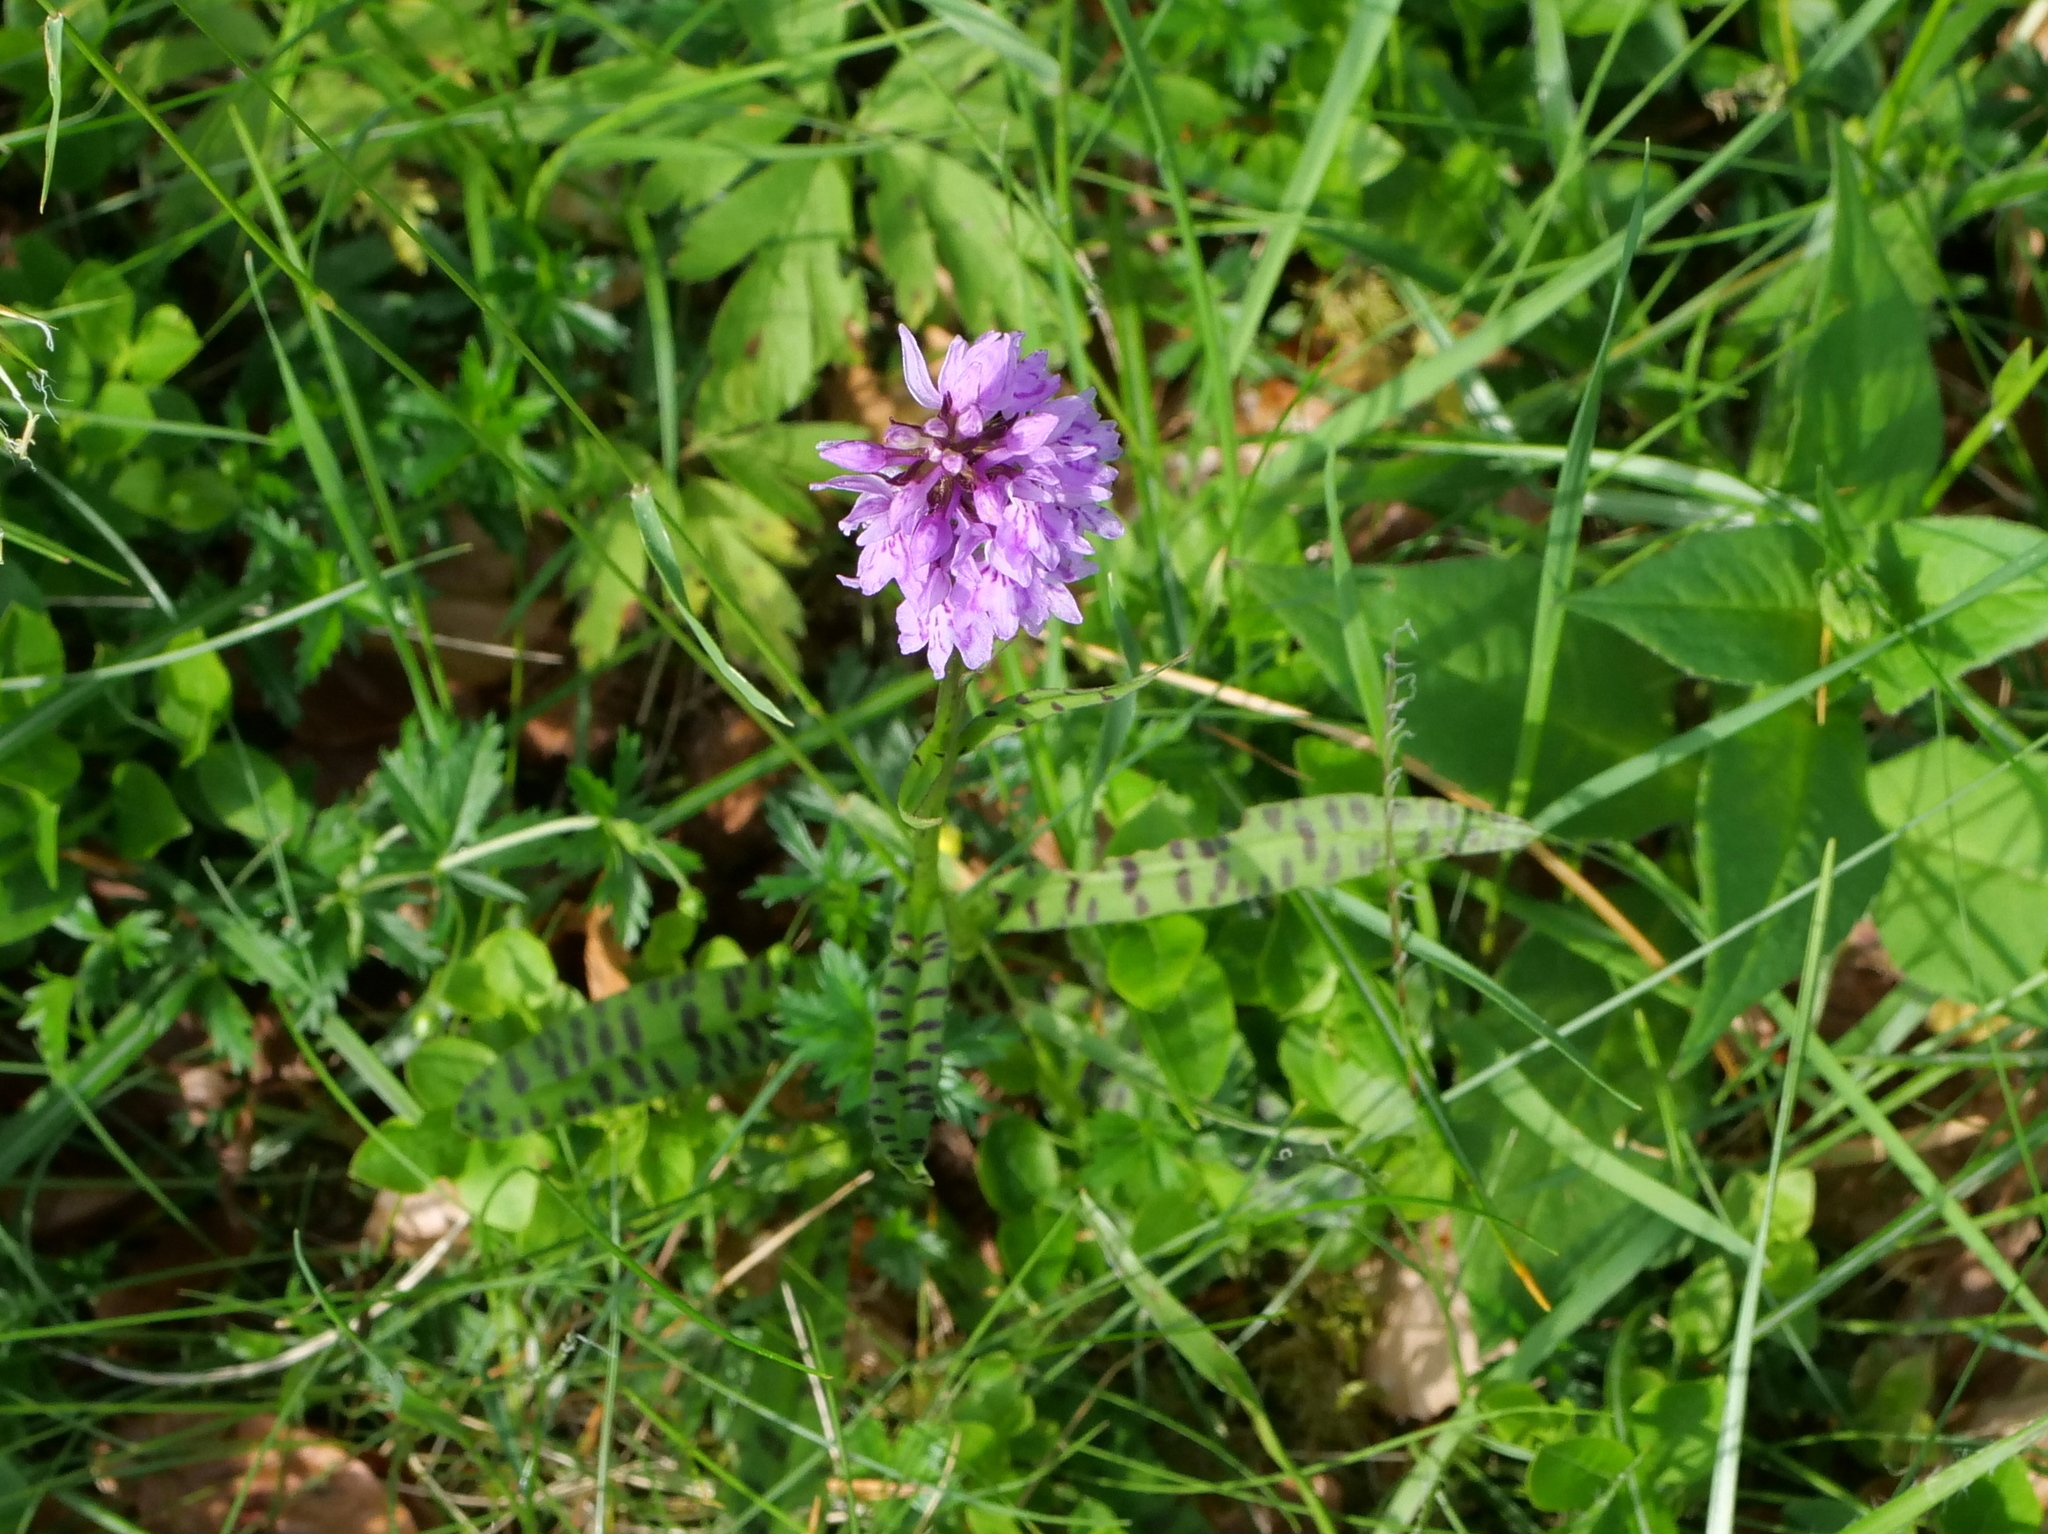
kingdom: Plantae
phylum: Tracheophyta
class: Liliopsida
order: Asparagales
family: Orchidaceae
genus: Dactylorhiza
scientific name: Dactylorhiza maculata
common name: Heath spotted-orchid
